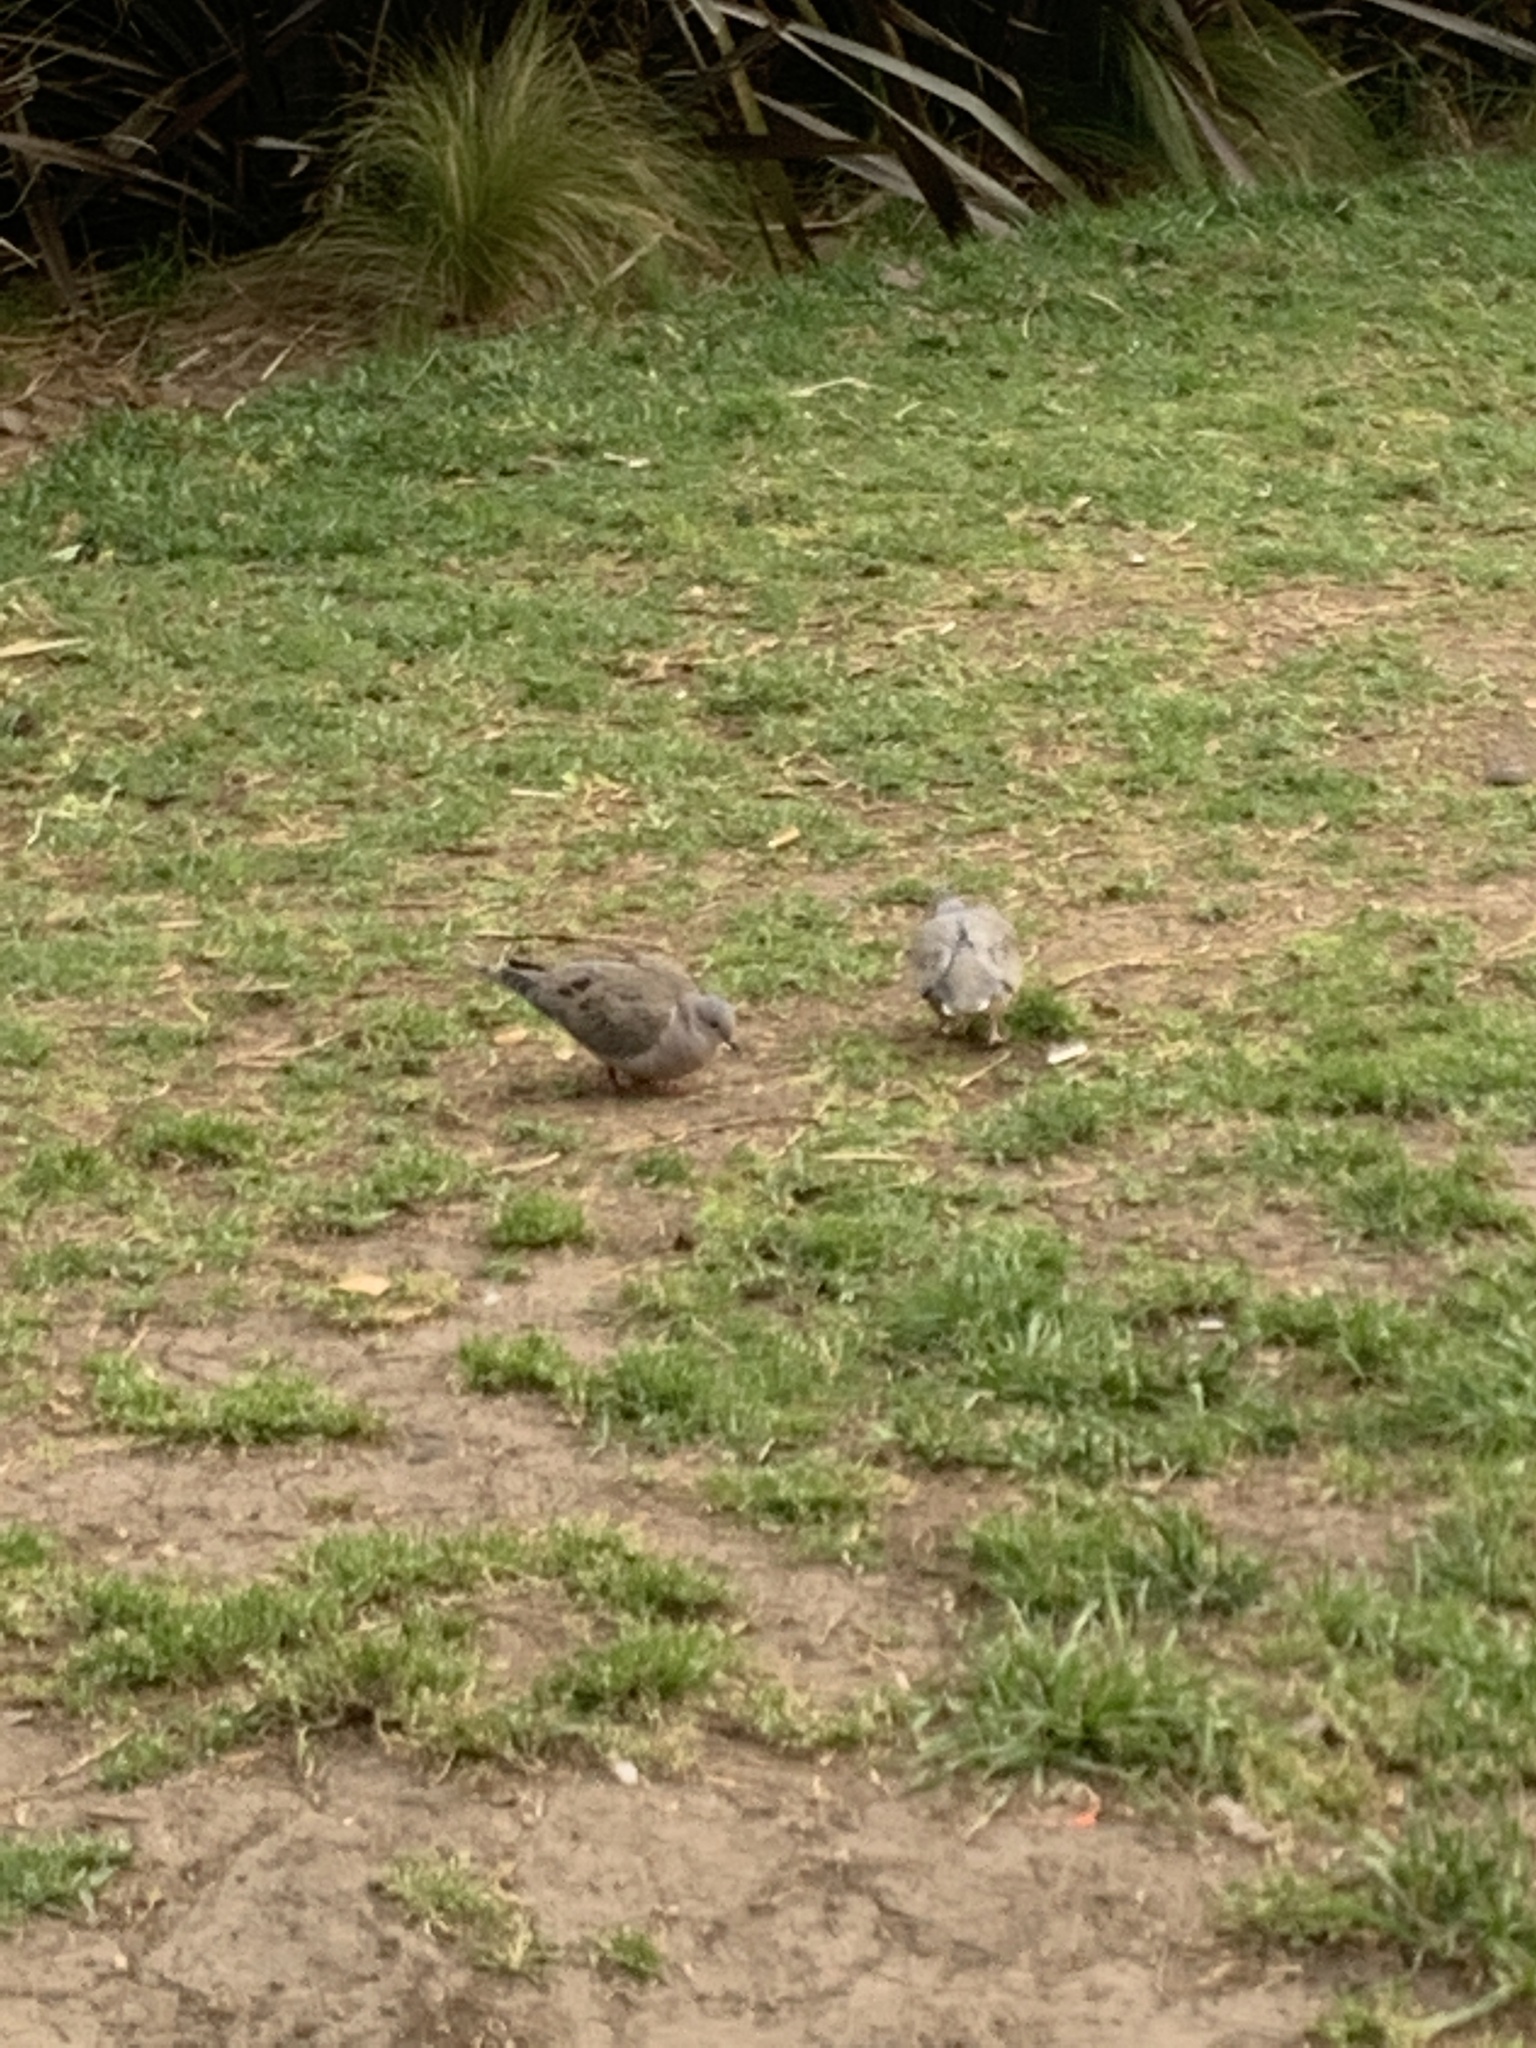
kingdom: Animalia
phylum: Chordata
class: Aves
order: Columbiformes
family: Columbidae
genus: Zenaida
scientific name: Zenaida auriculata
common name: Eared dove
